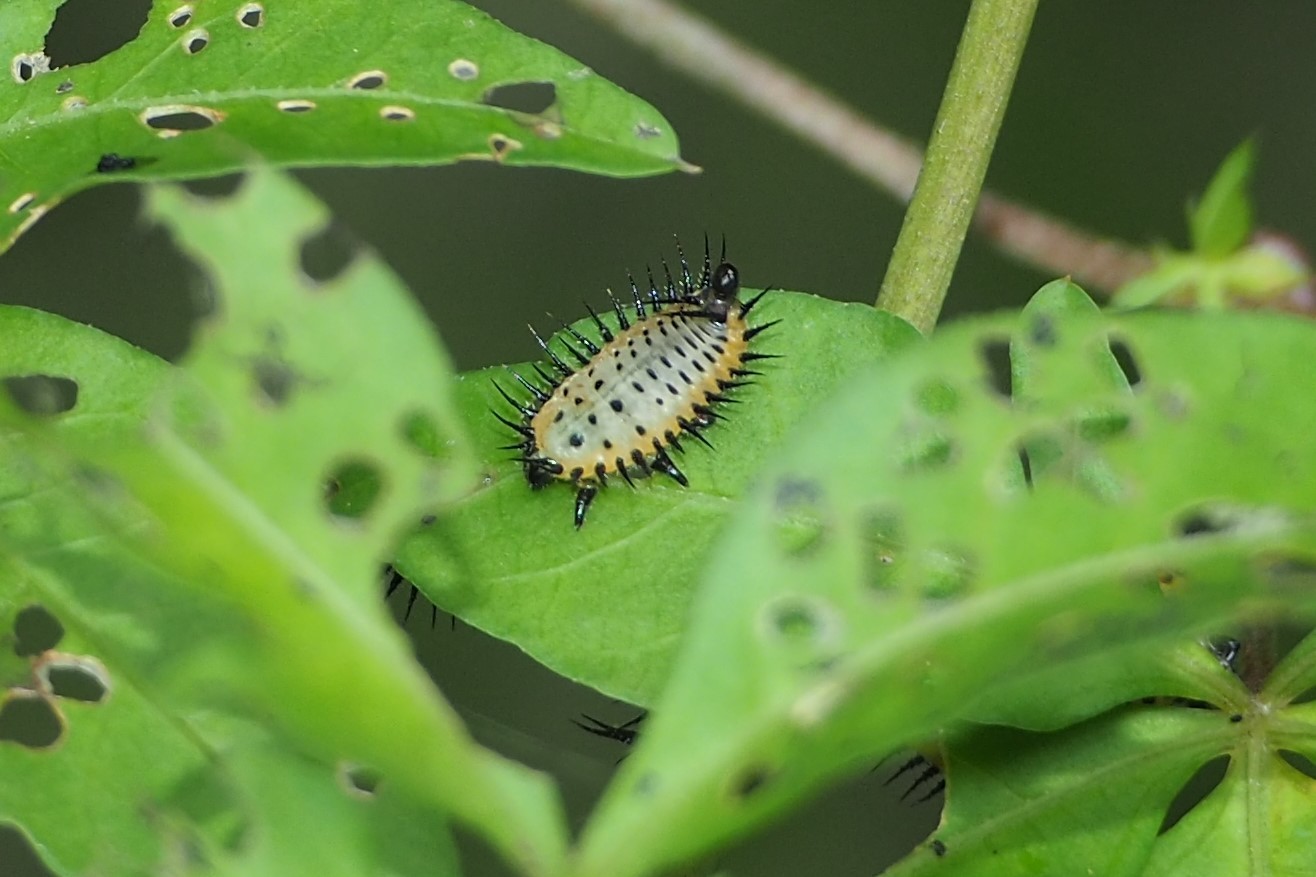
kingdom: Animalia
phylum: Arthropoda
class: Insecta
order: Coleoptera
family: Chrysomelidae
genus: Aspidimorpha
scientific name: Aspidimorpha miliaris
